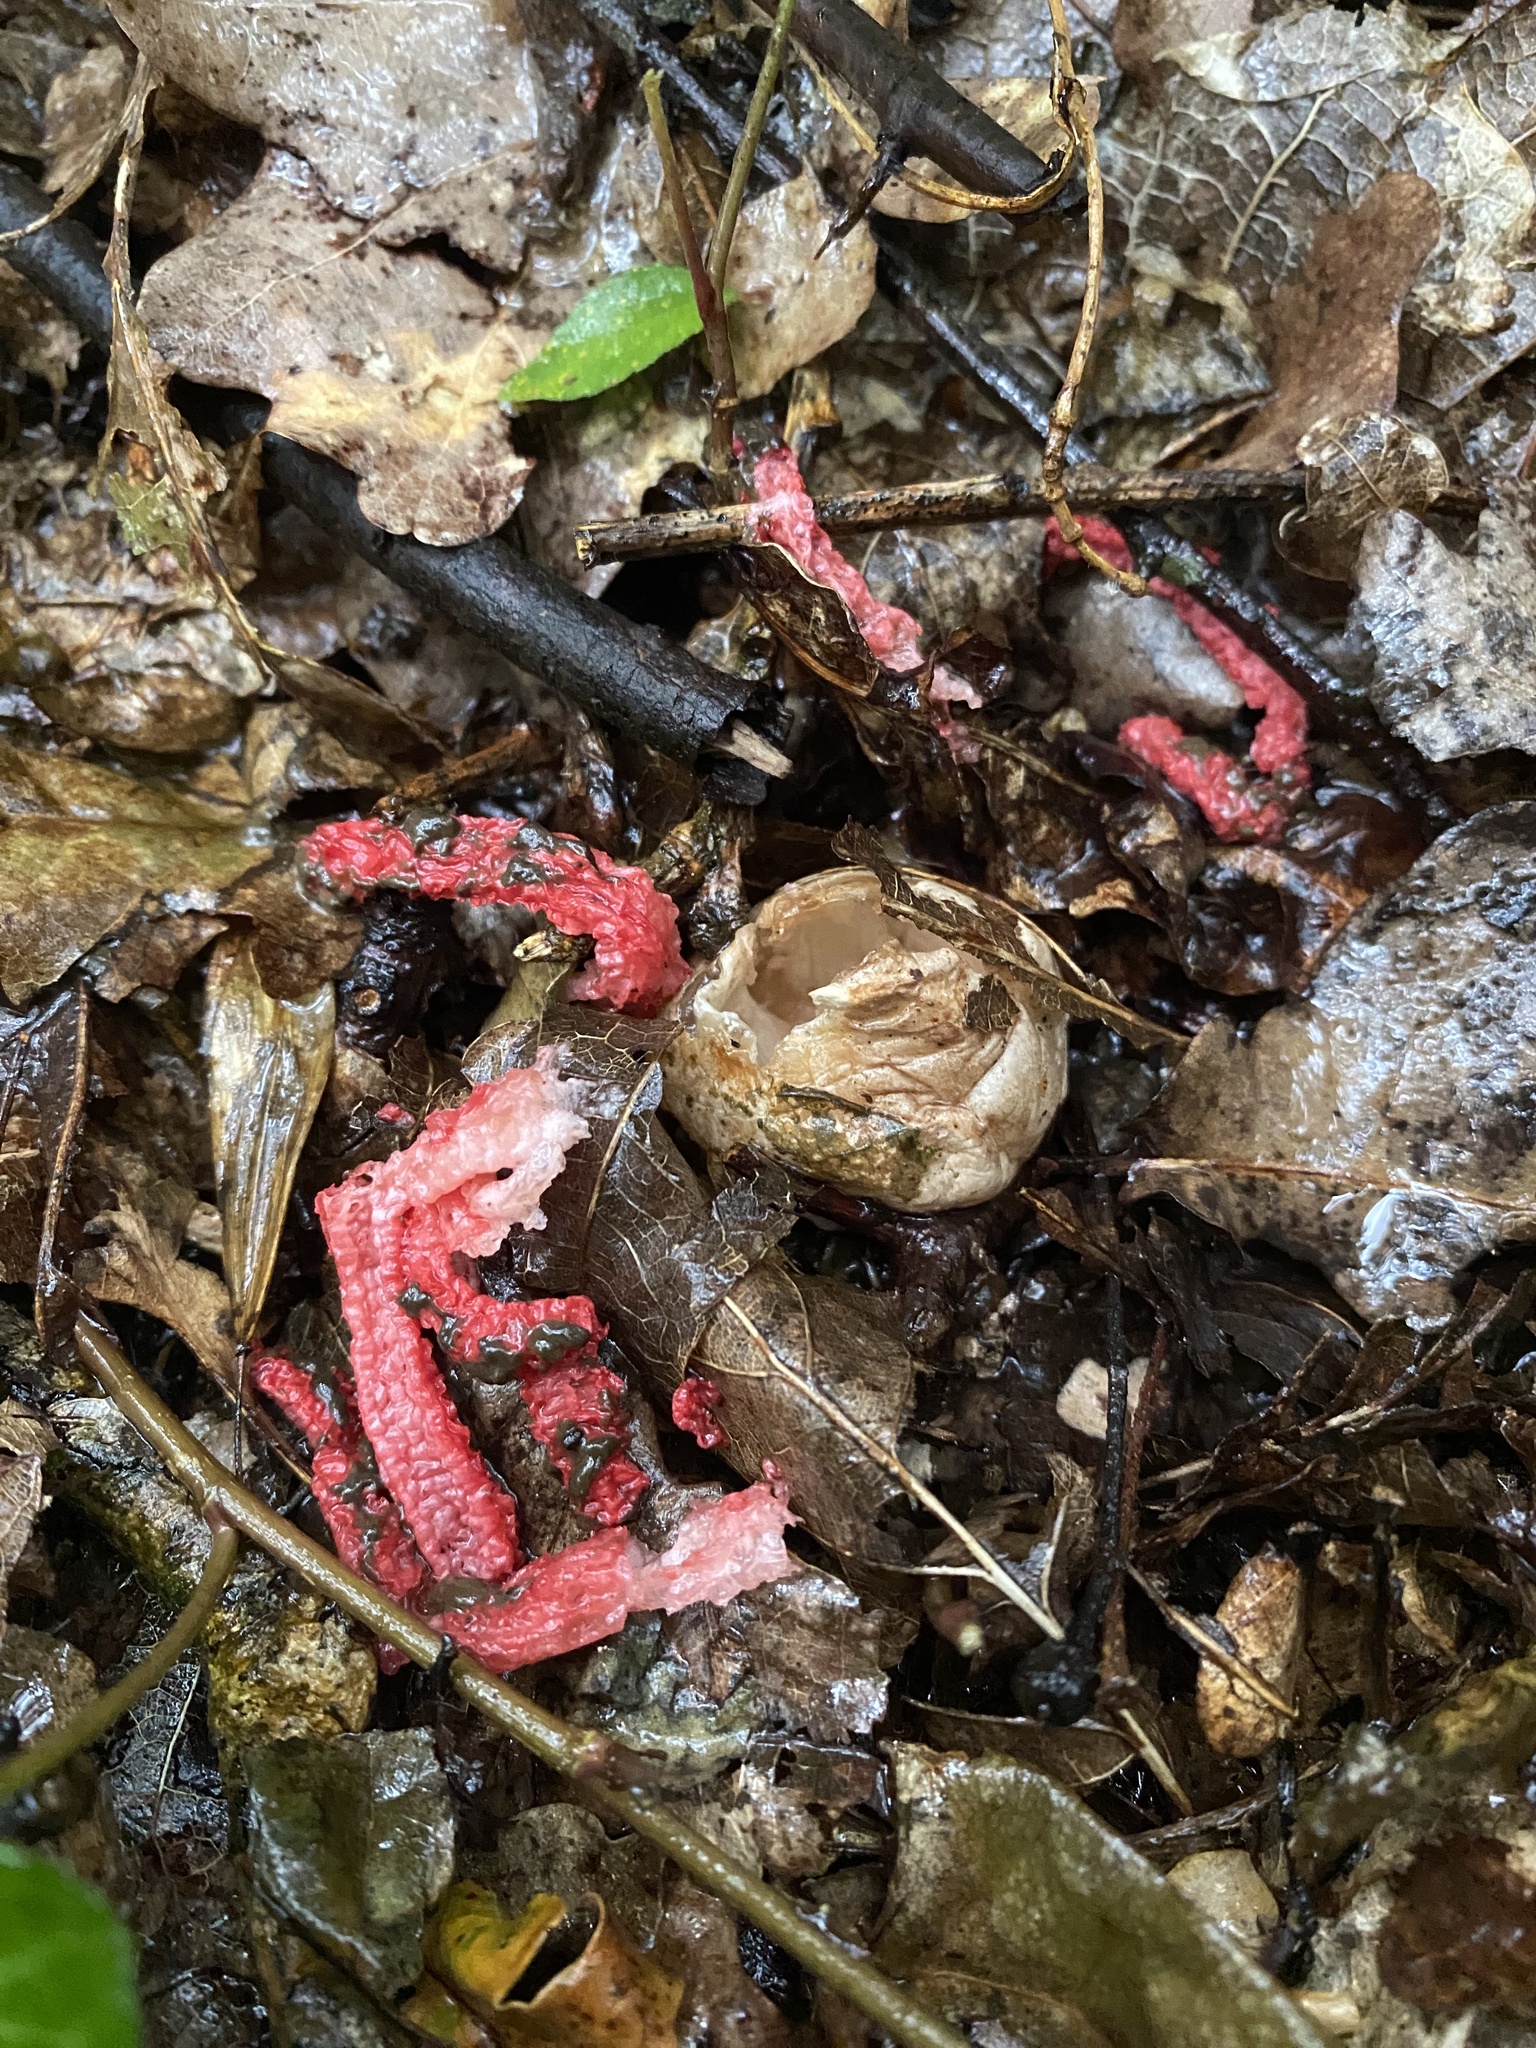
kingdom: Fungi
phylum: Basidiomycota
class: Agaricomycetes
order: Phallales
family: Phallaceae
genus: Clathrus
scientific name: Clathrus archeri
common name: Devil's fingers
